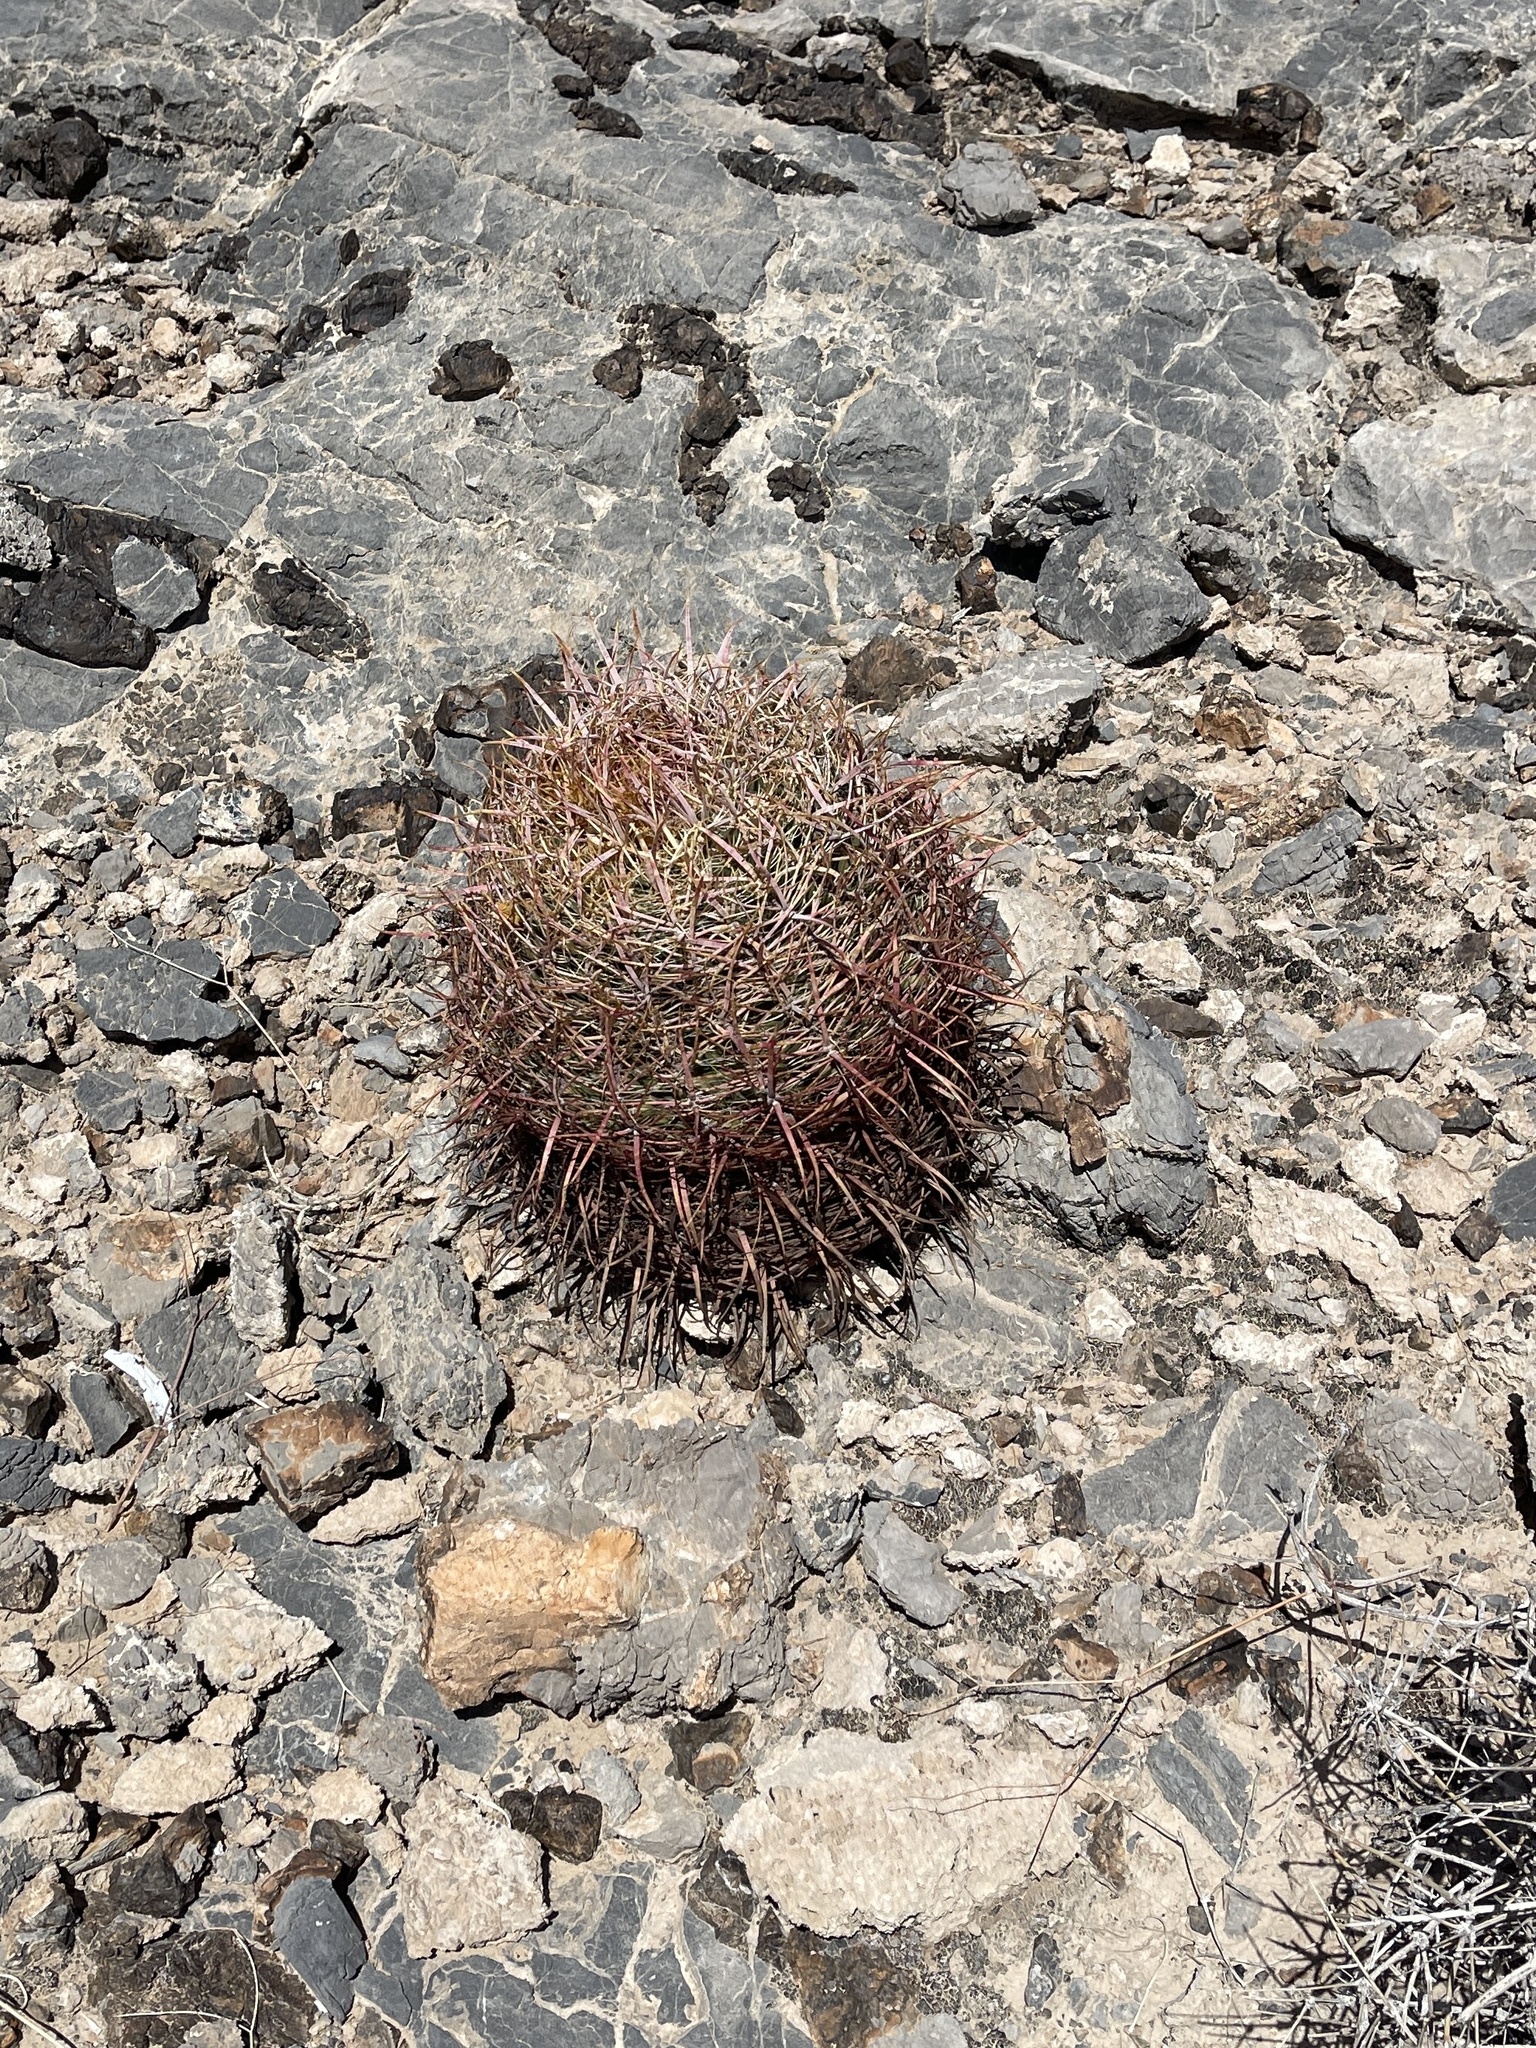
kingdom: Plantae
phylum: Tracheophyta
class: Magnoliopsida
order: Caryophyllales
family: Cactaceae
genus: Ferocactus
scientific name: Ferocactus cylindraceus
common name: California barrel cactus
